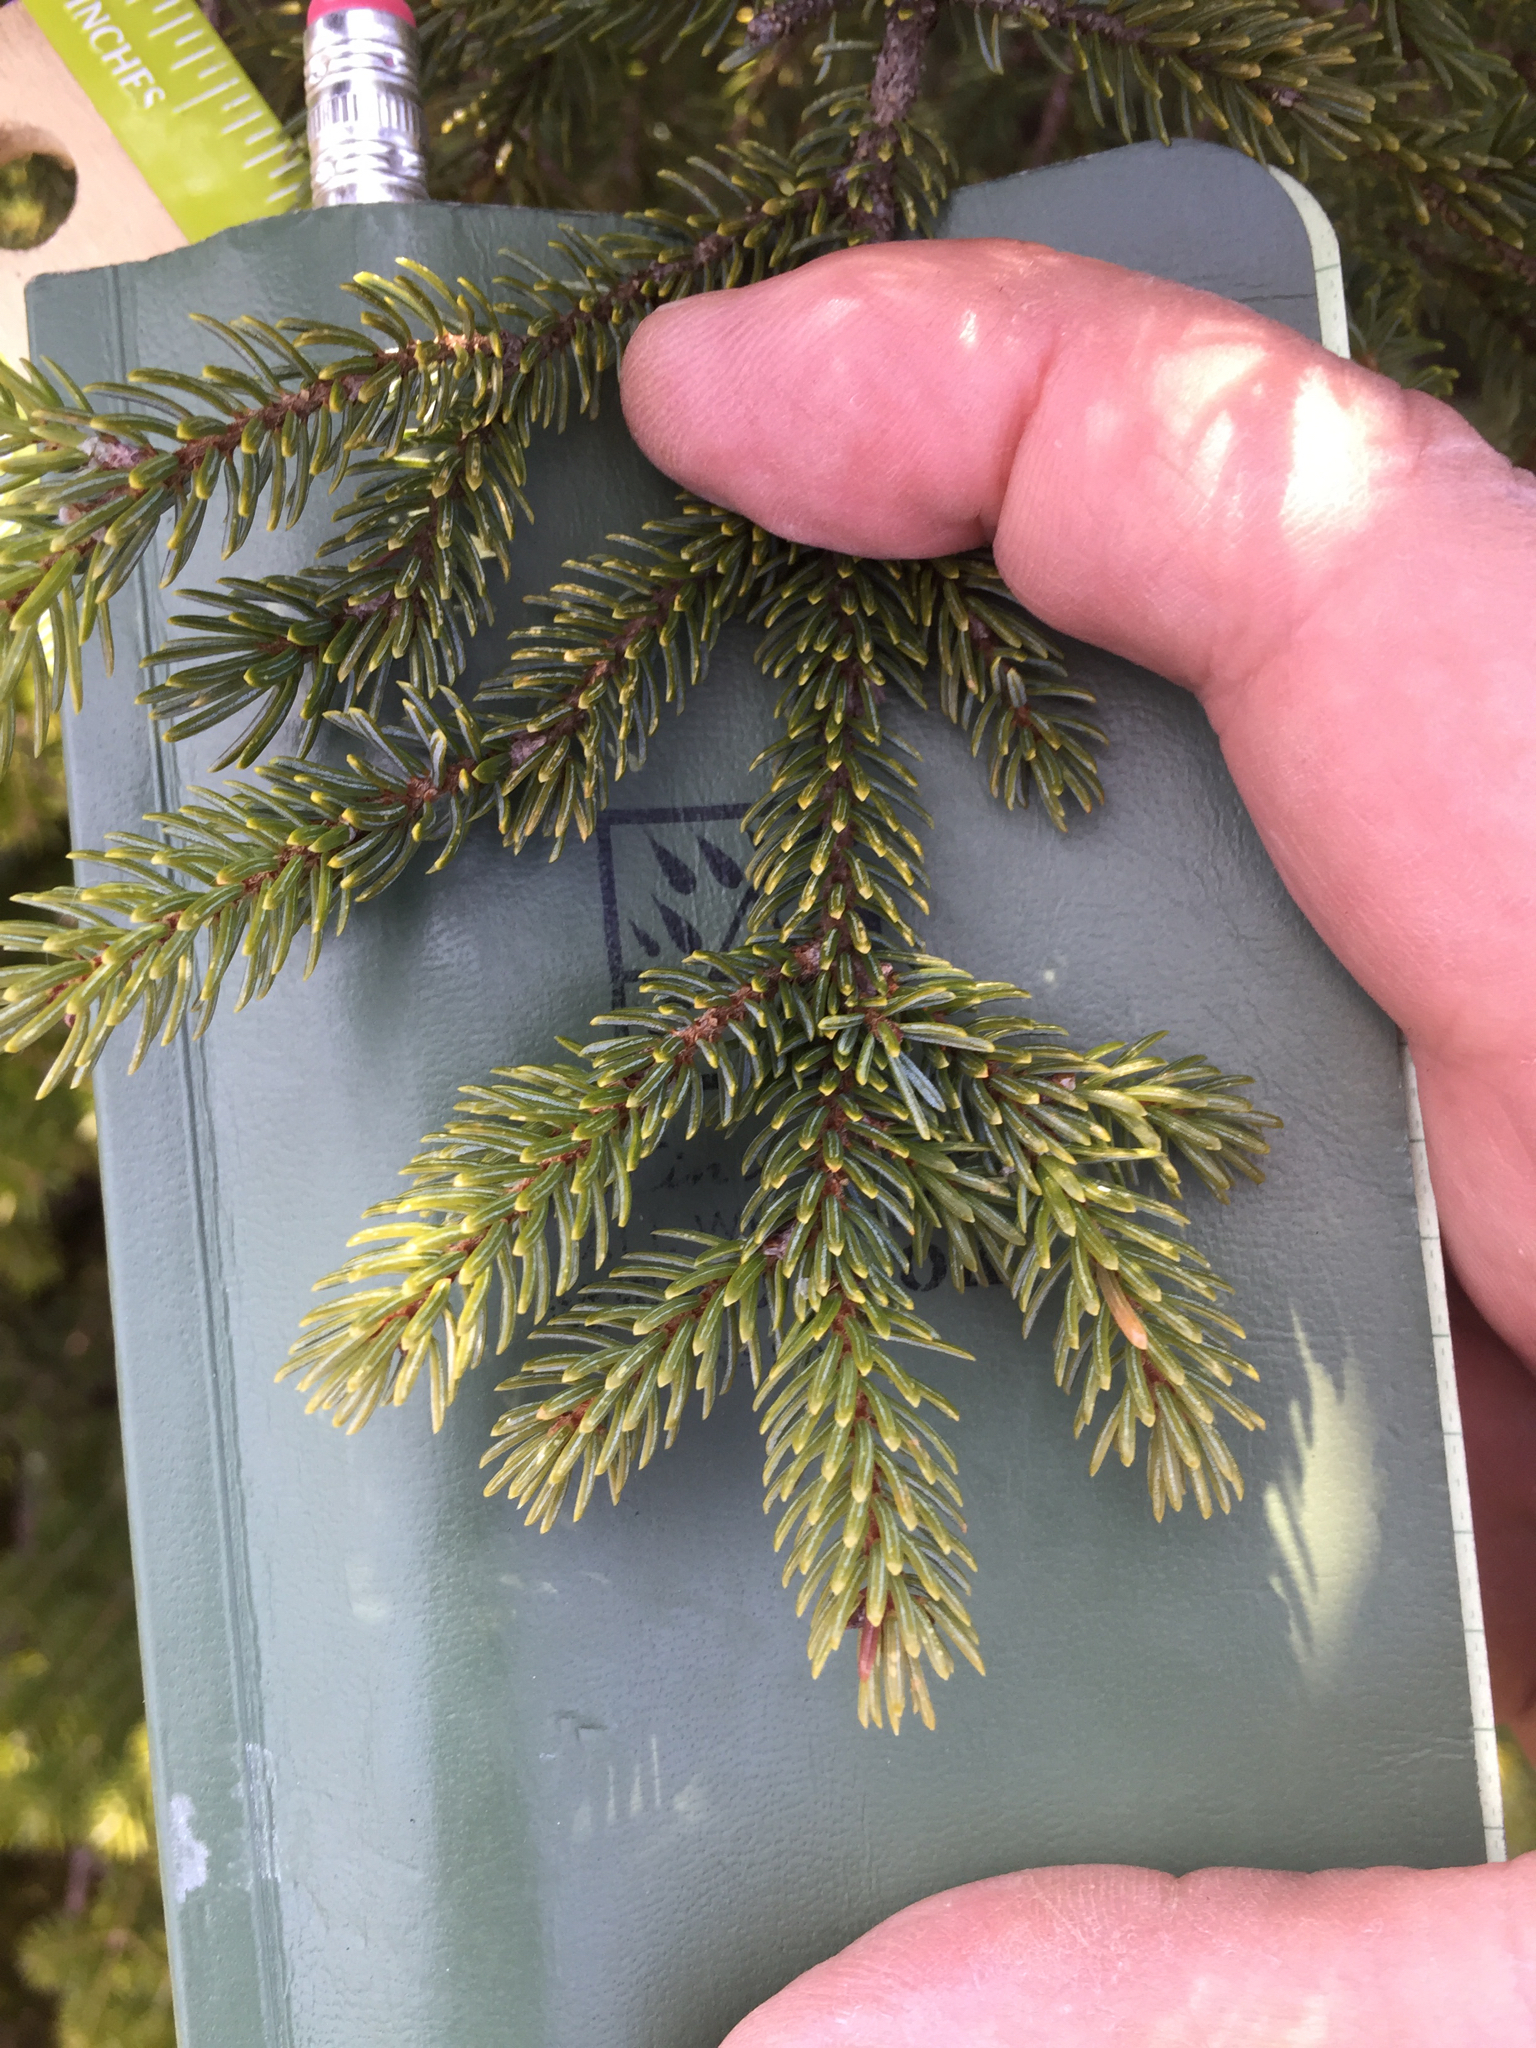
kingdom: Plantae
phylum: Tracheophyta
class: Pinopsida
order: Pinales
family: Pinaceae
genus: Picea
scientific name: Picea mariana
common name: Black spruce
